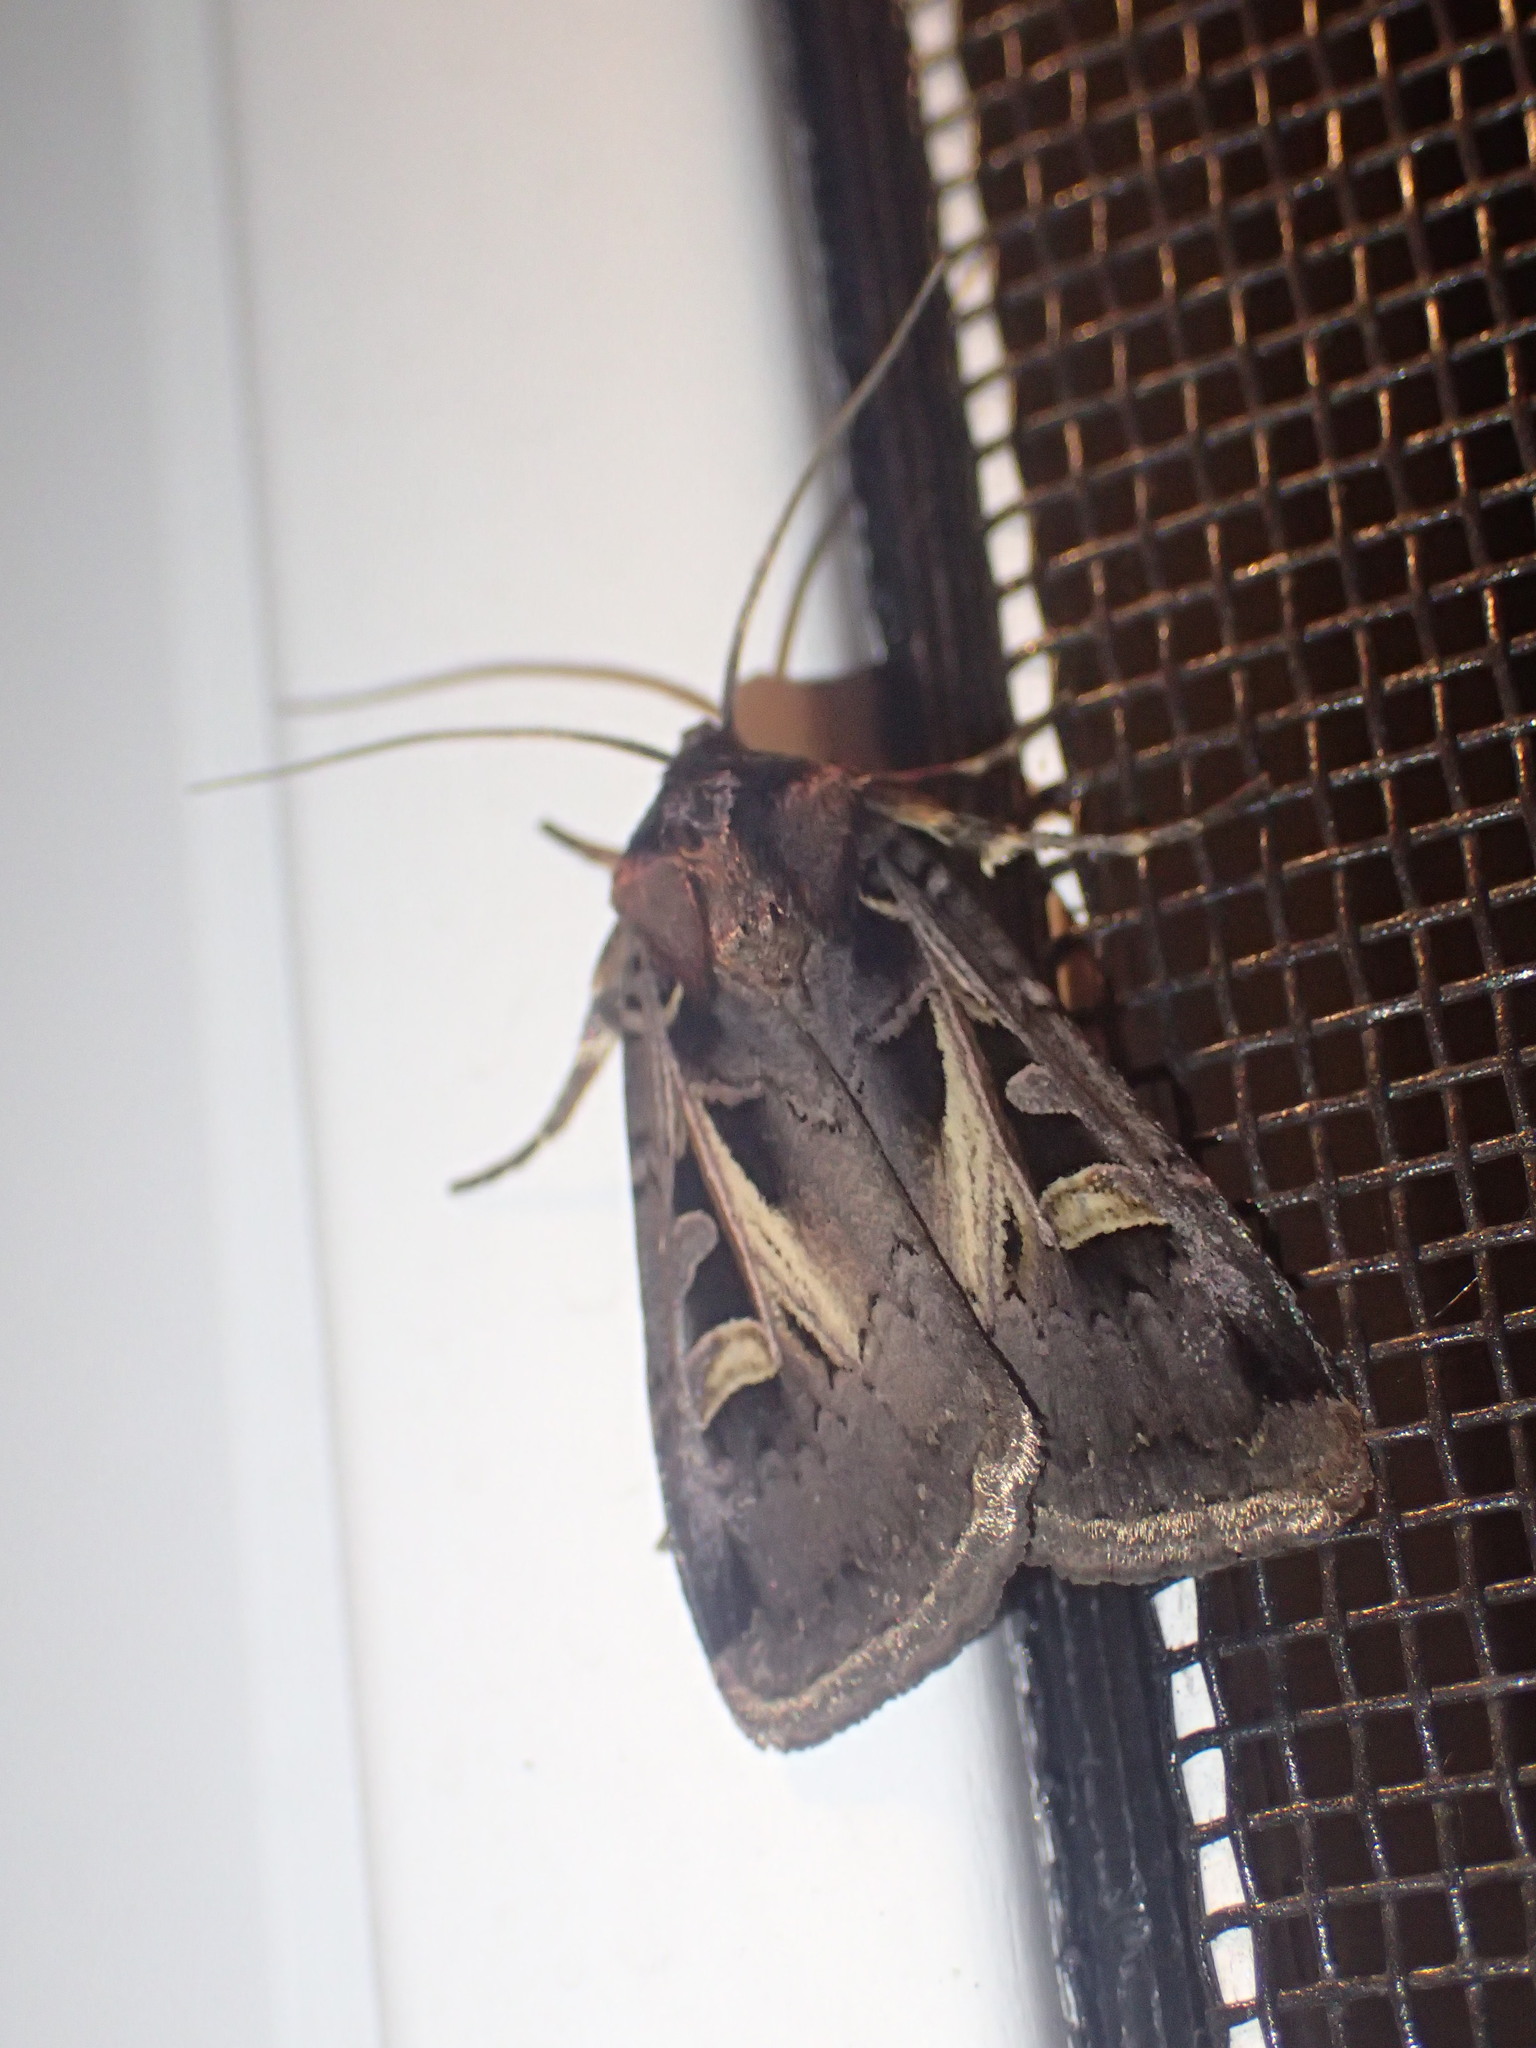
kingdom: Animalia
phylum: Arthropoda
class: Insecta
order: Lepidoptera
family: Noctuidae
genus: Feltia
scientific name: Feltia herilis
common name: Master's dart
